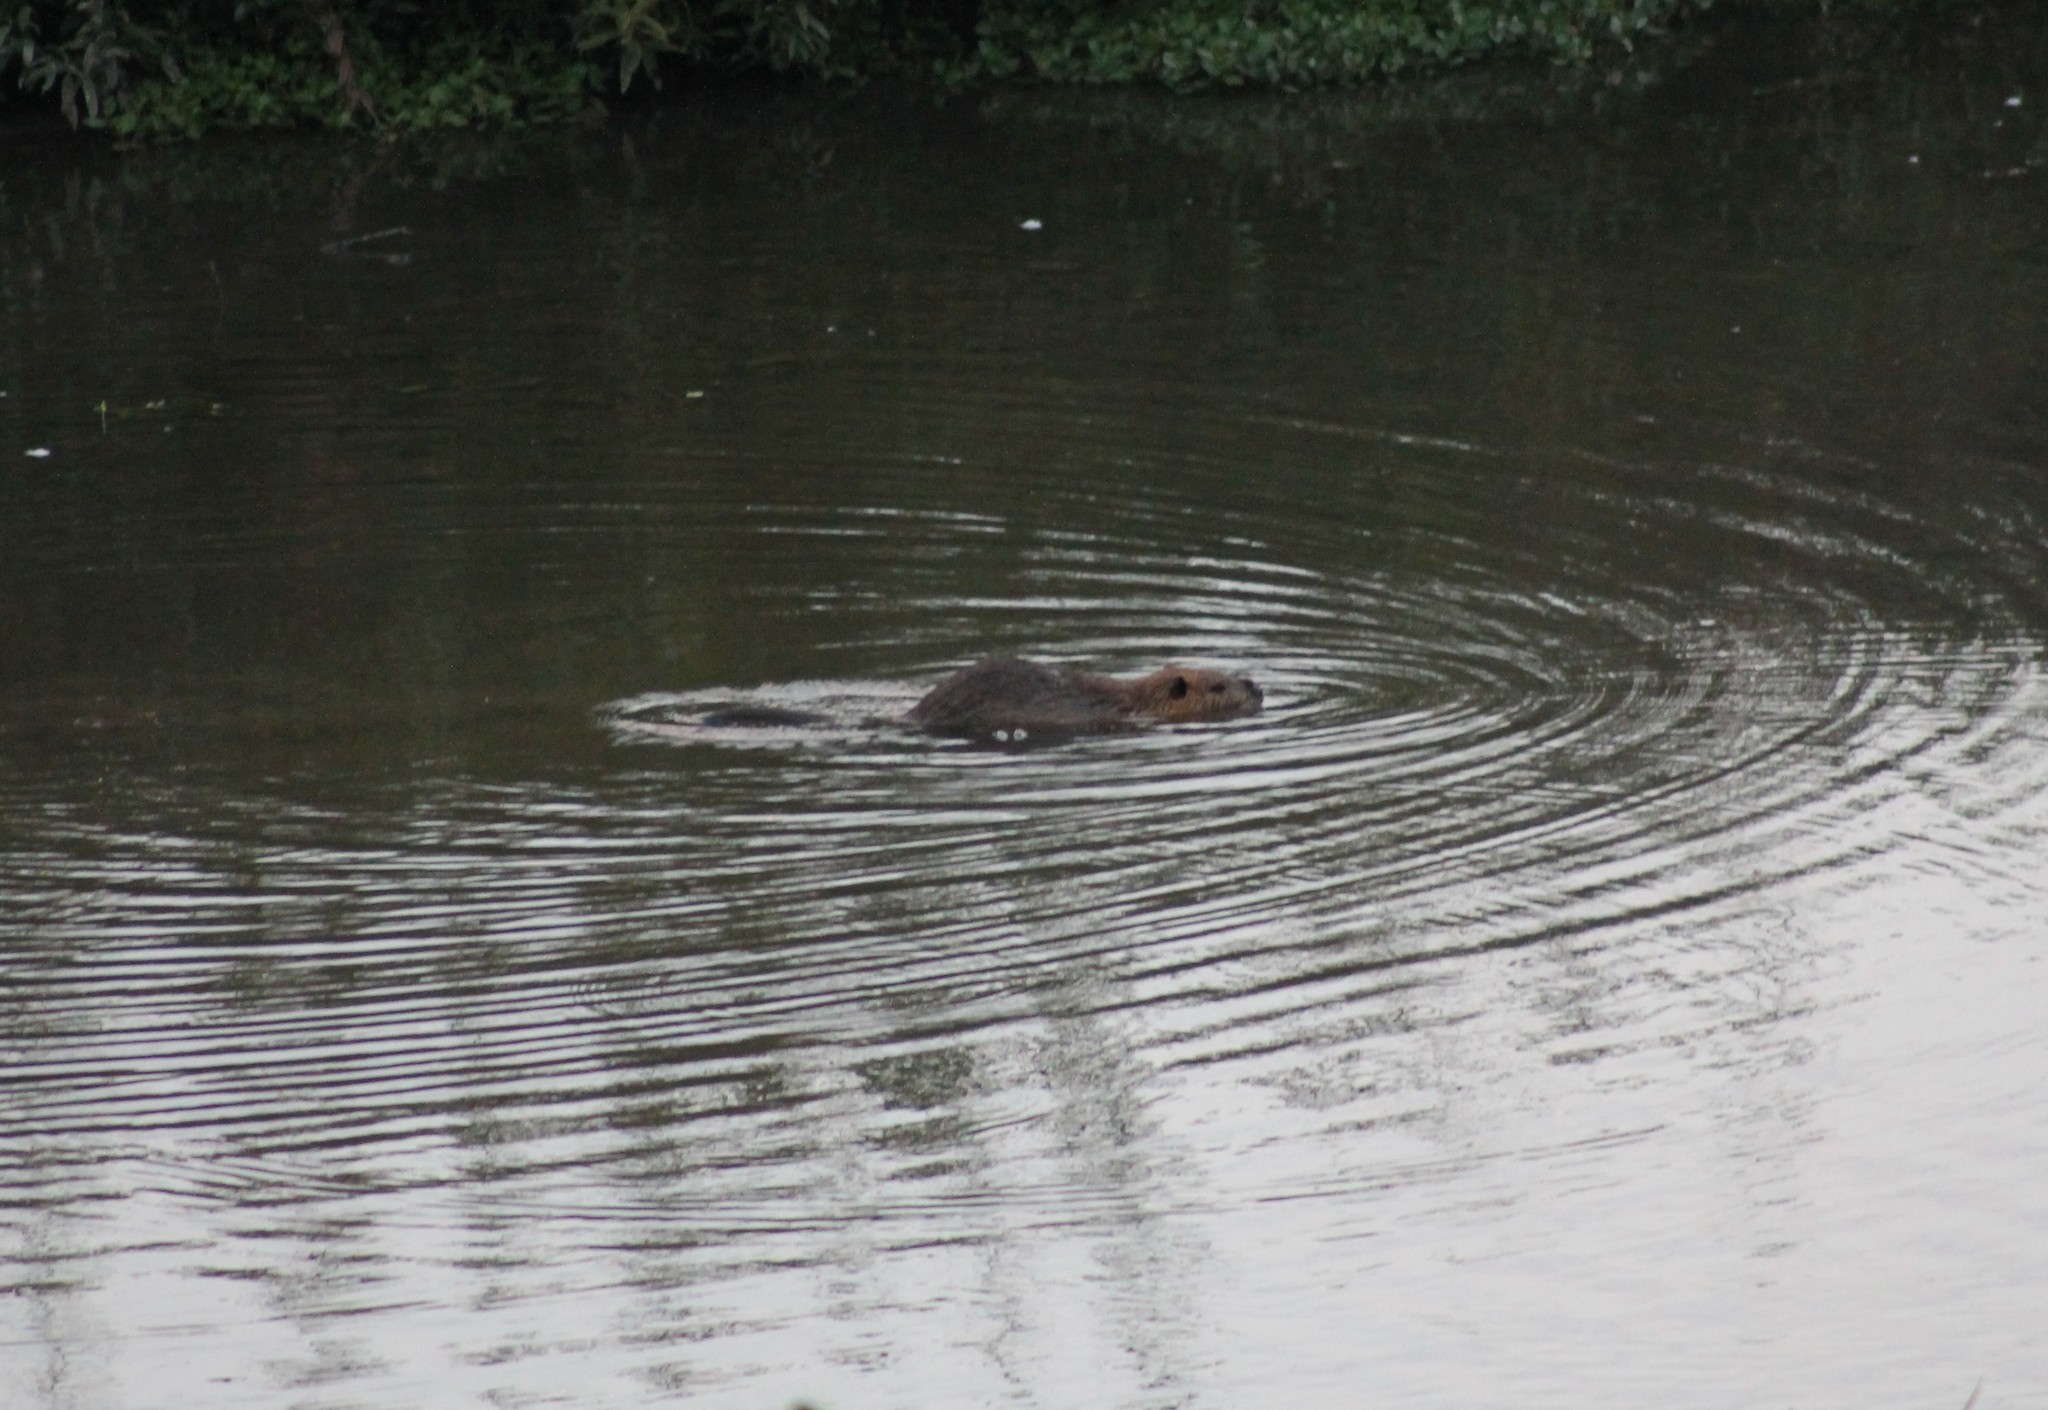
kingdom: Animalia
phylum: Chordata
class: Mammalia
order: Rodentia
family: Myocastoridae
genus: Myocastor
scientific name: Myocastor coypus
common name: Coypu
